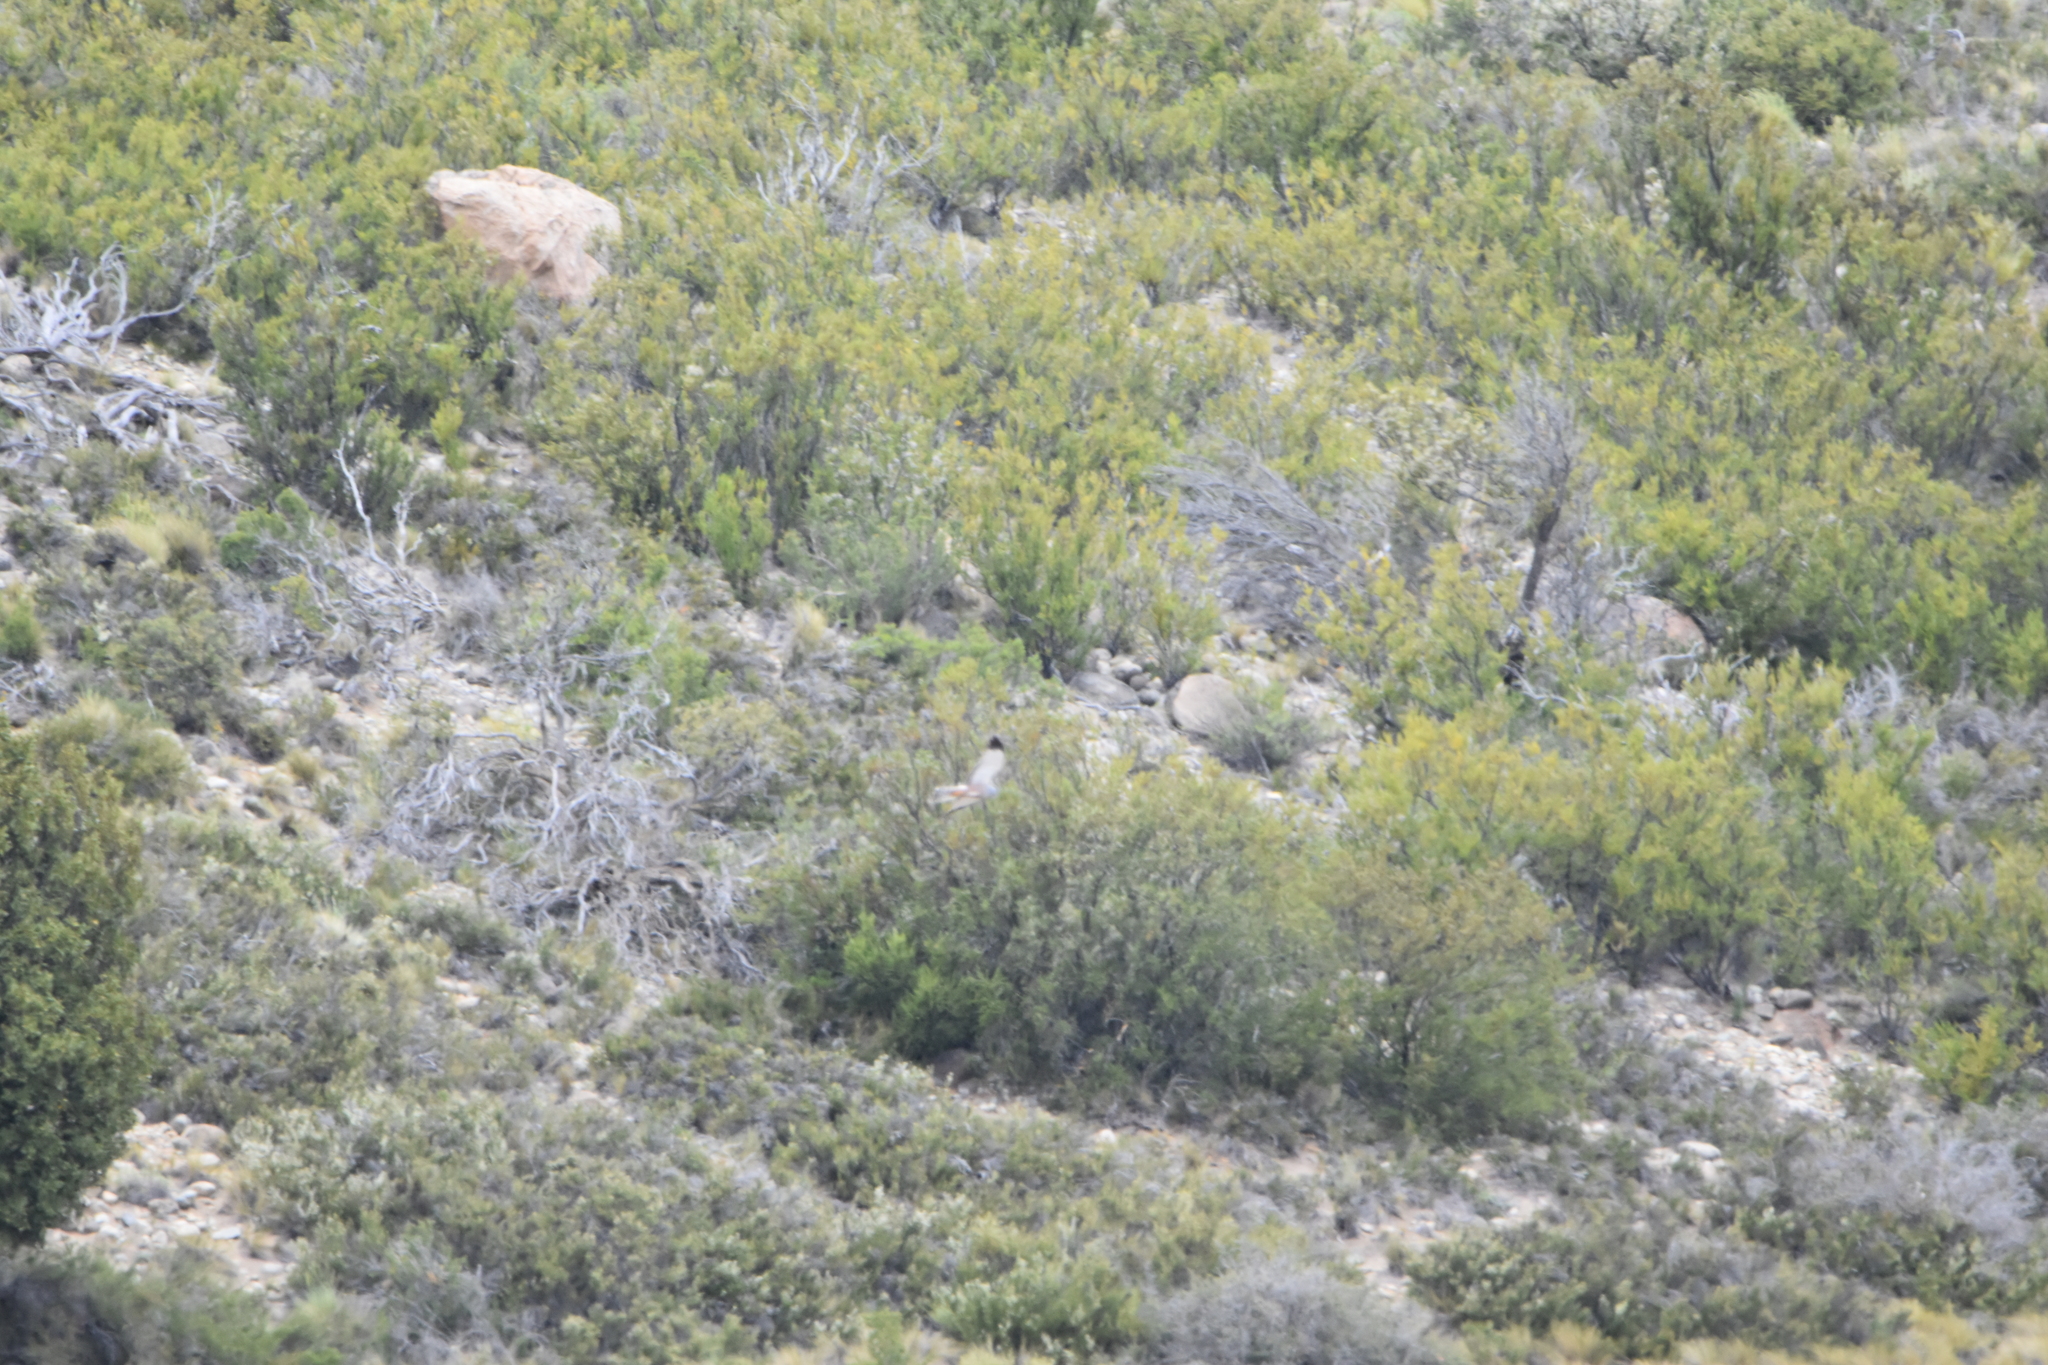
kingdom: Animalia
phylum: Chordata
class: Aves
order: Accipitriformes
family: Accipitridae
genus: Circus
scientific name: Circus cinereus
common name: Cinereous harrier
